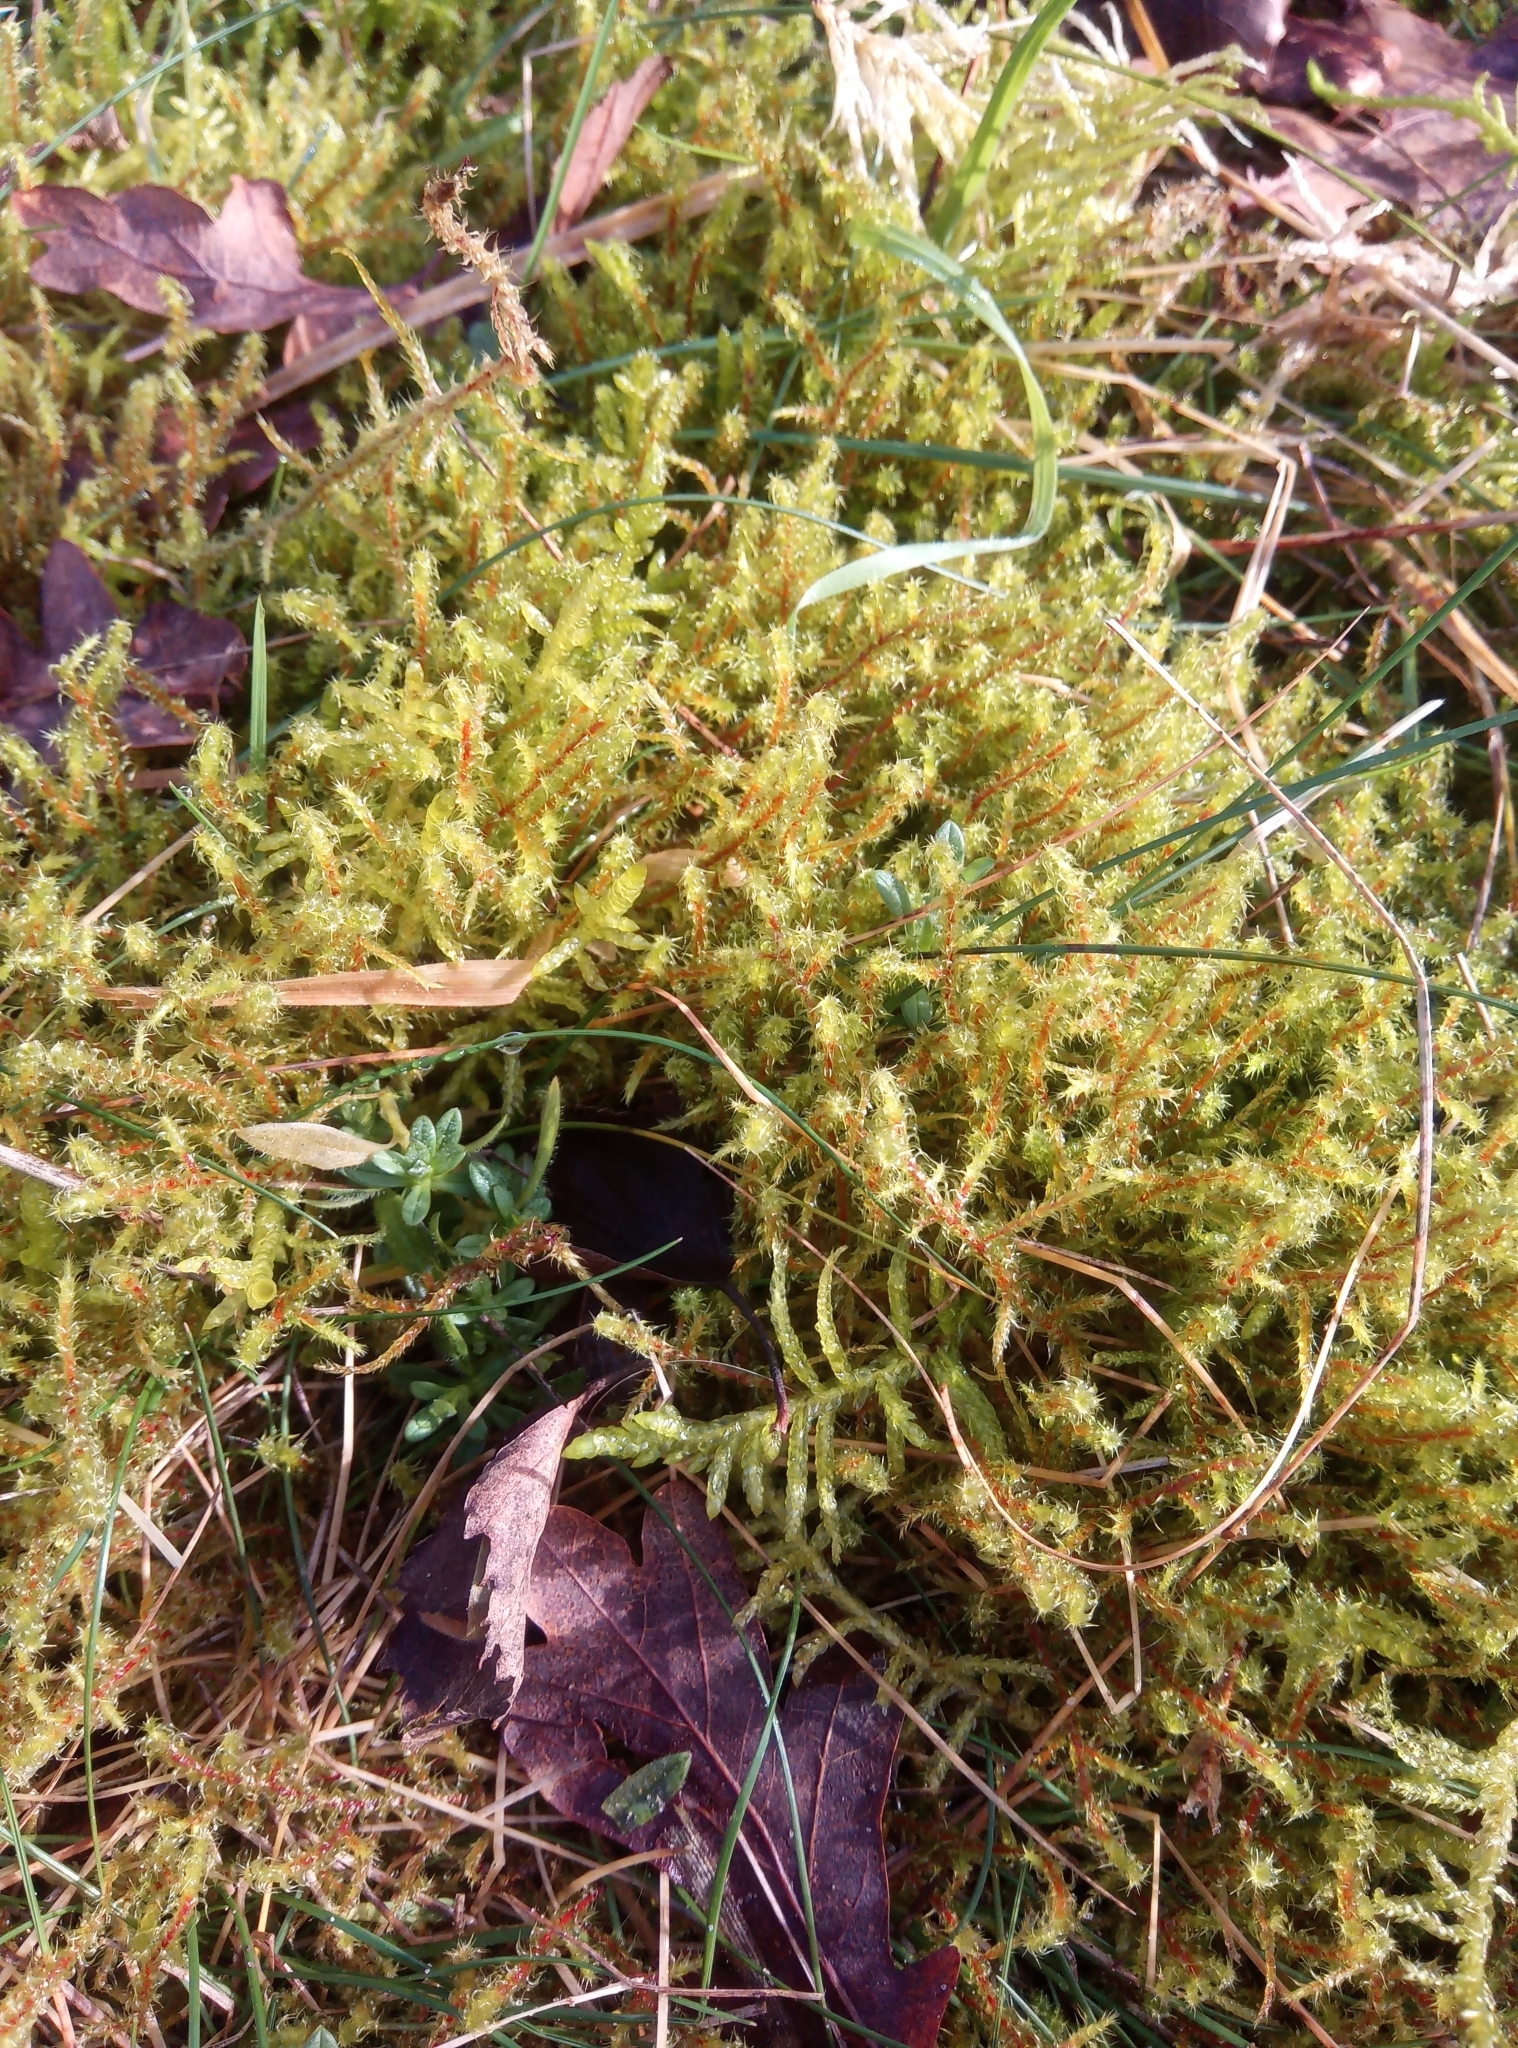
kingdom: Plantae
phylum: Bryophyta
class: Bryopsida
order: Hypnales
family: Hylocomiaceae
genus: Rhytidiadelphus
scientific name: Rhytidiadelphus squarrosus
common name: Springy turf-moss
